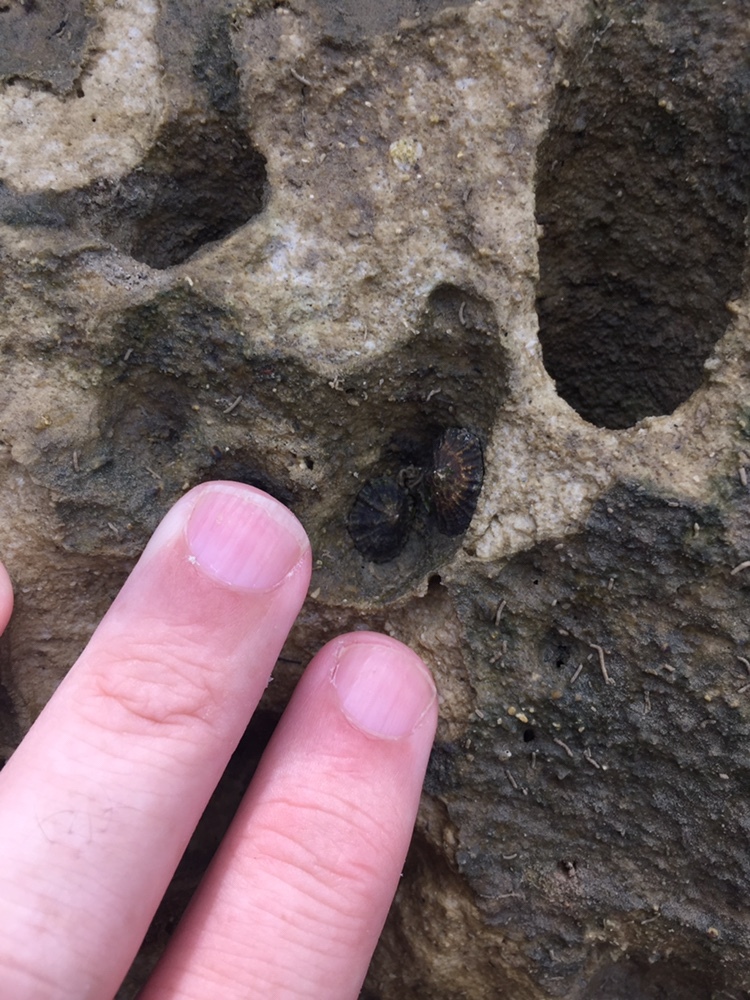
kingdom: Animalia
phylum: Mollusca
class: Gastropoda
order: Siphonariida
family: Siphonariidae
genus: Siphonaria
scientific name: Siphonaria australis
